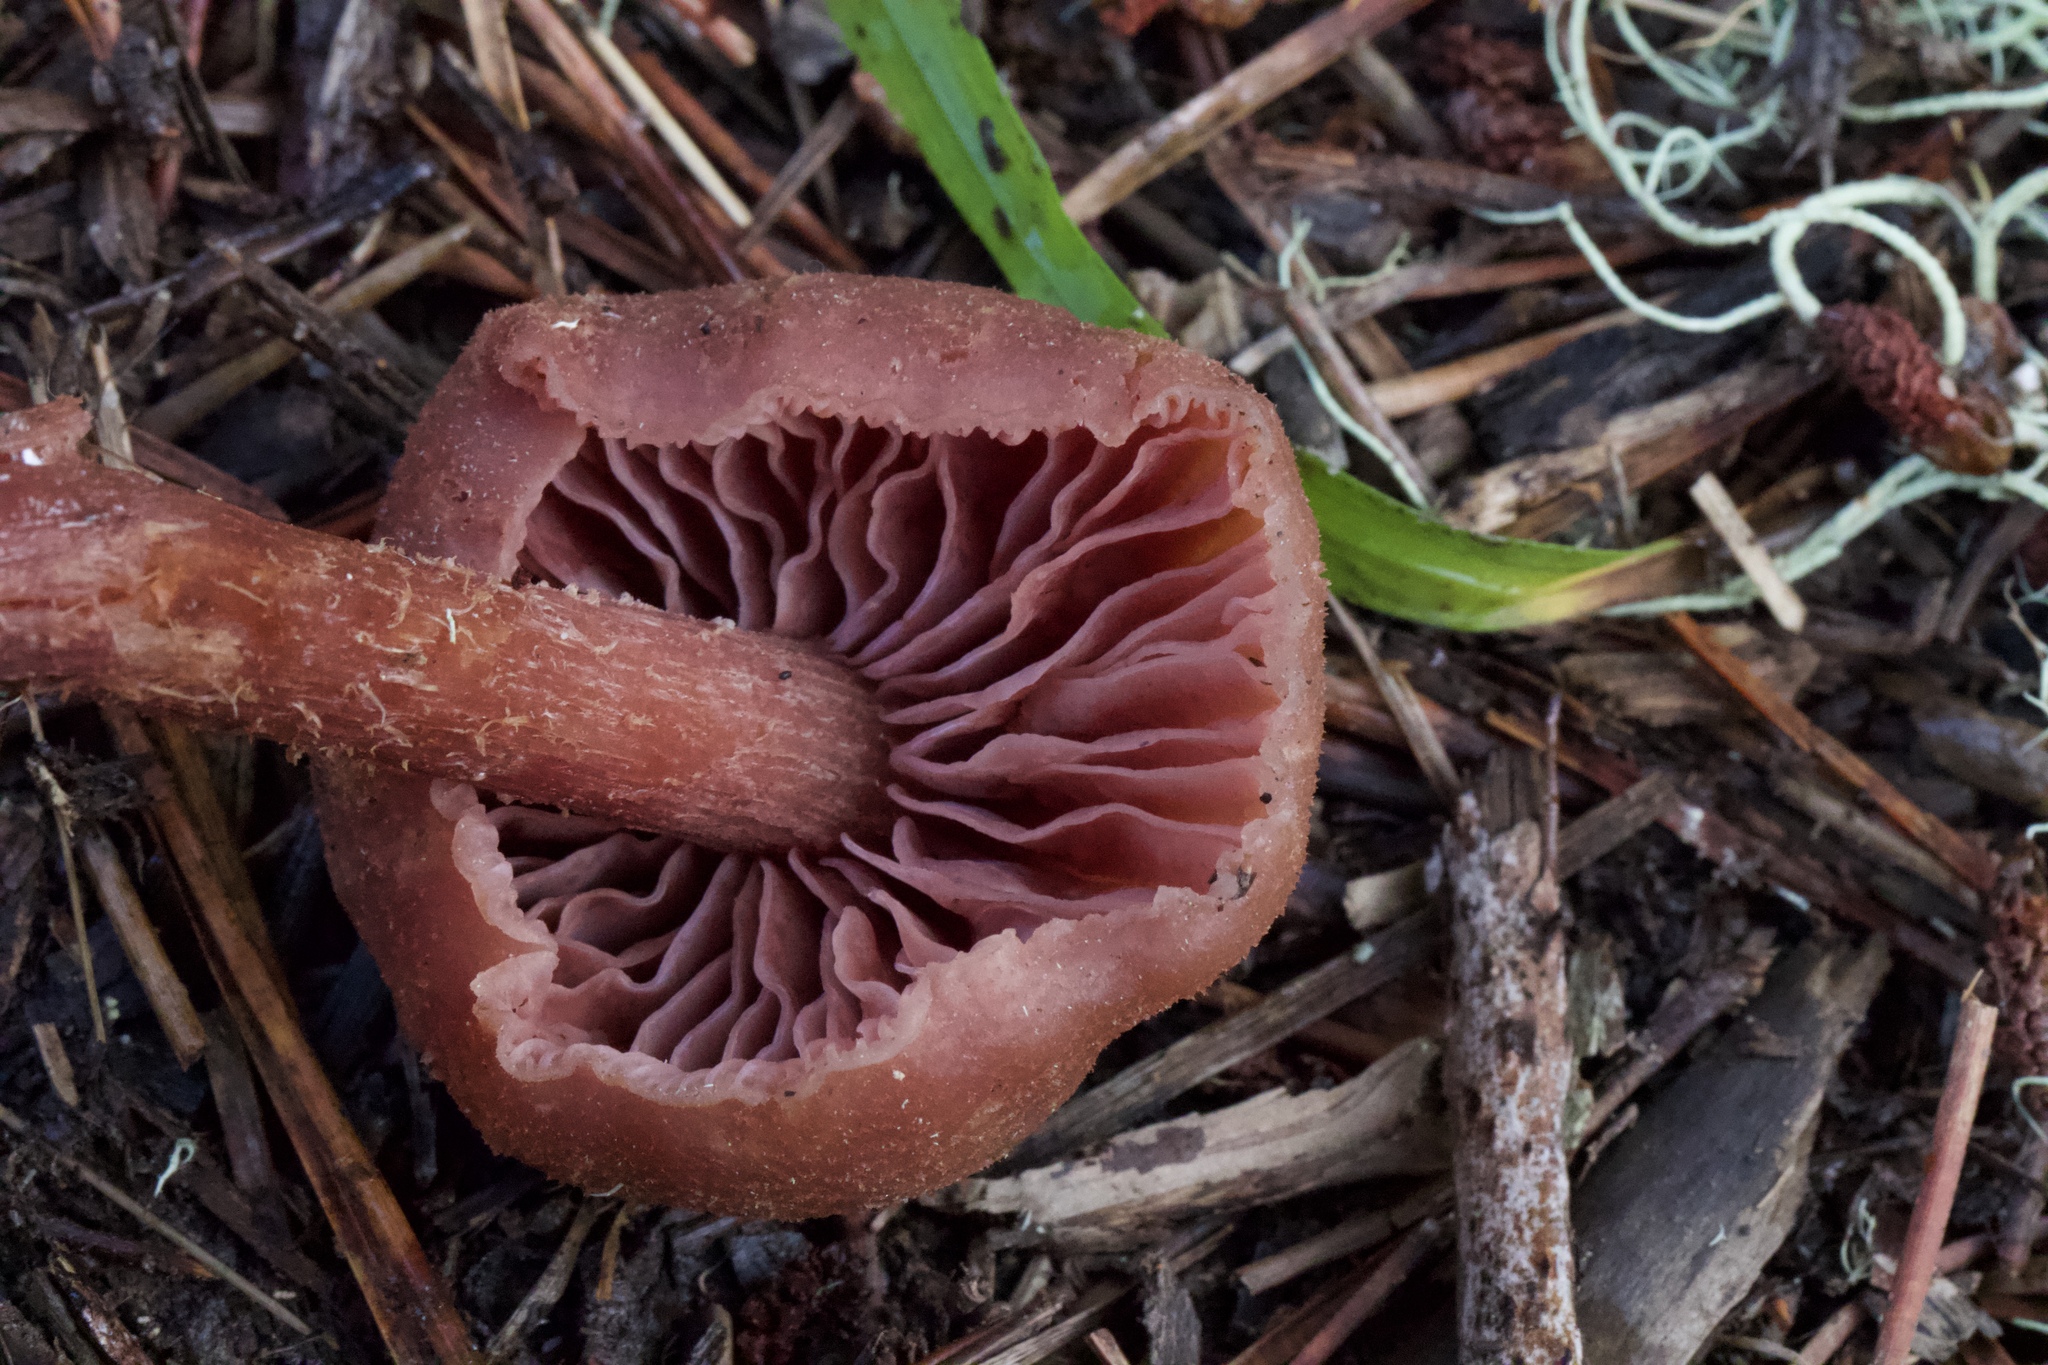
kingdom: Fungi
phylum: Basidiomycota
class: Agaricomycetes
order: Agaricales
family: Hydnangiaceae
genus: Laccaria
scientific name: Laccaria amethysteo-occidentalis
